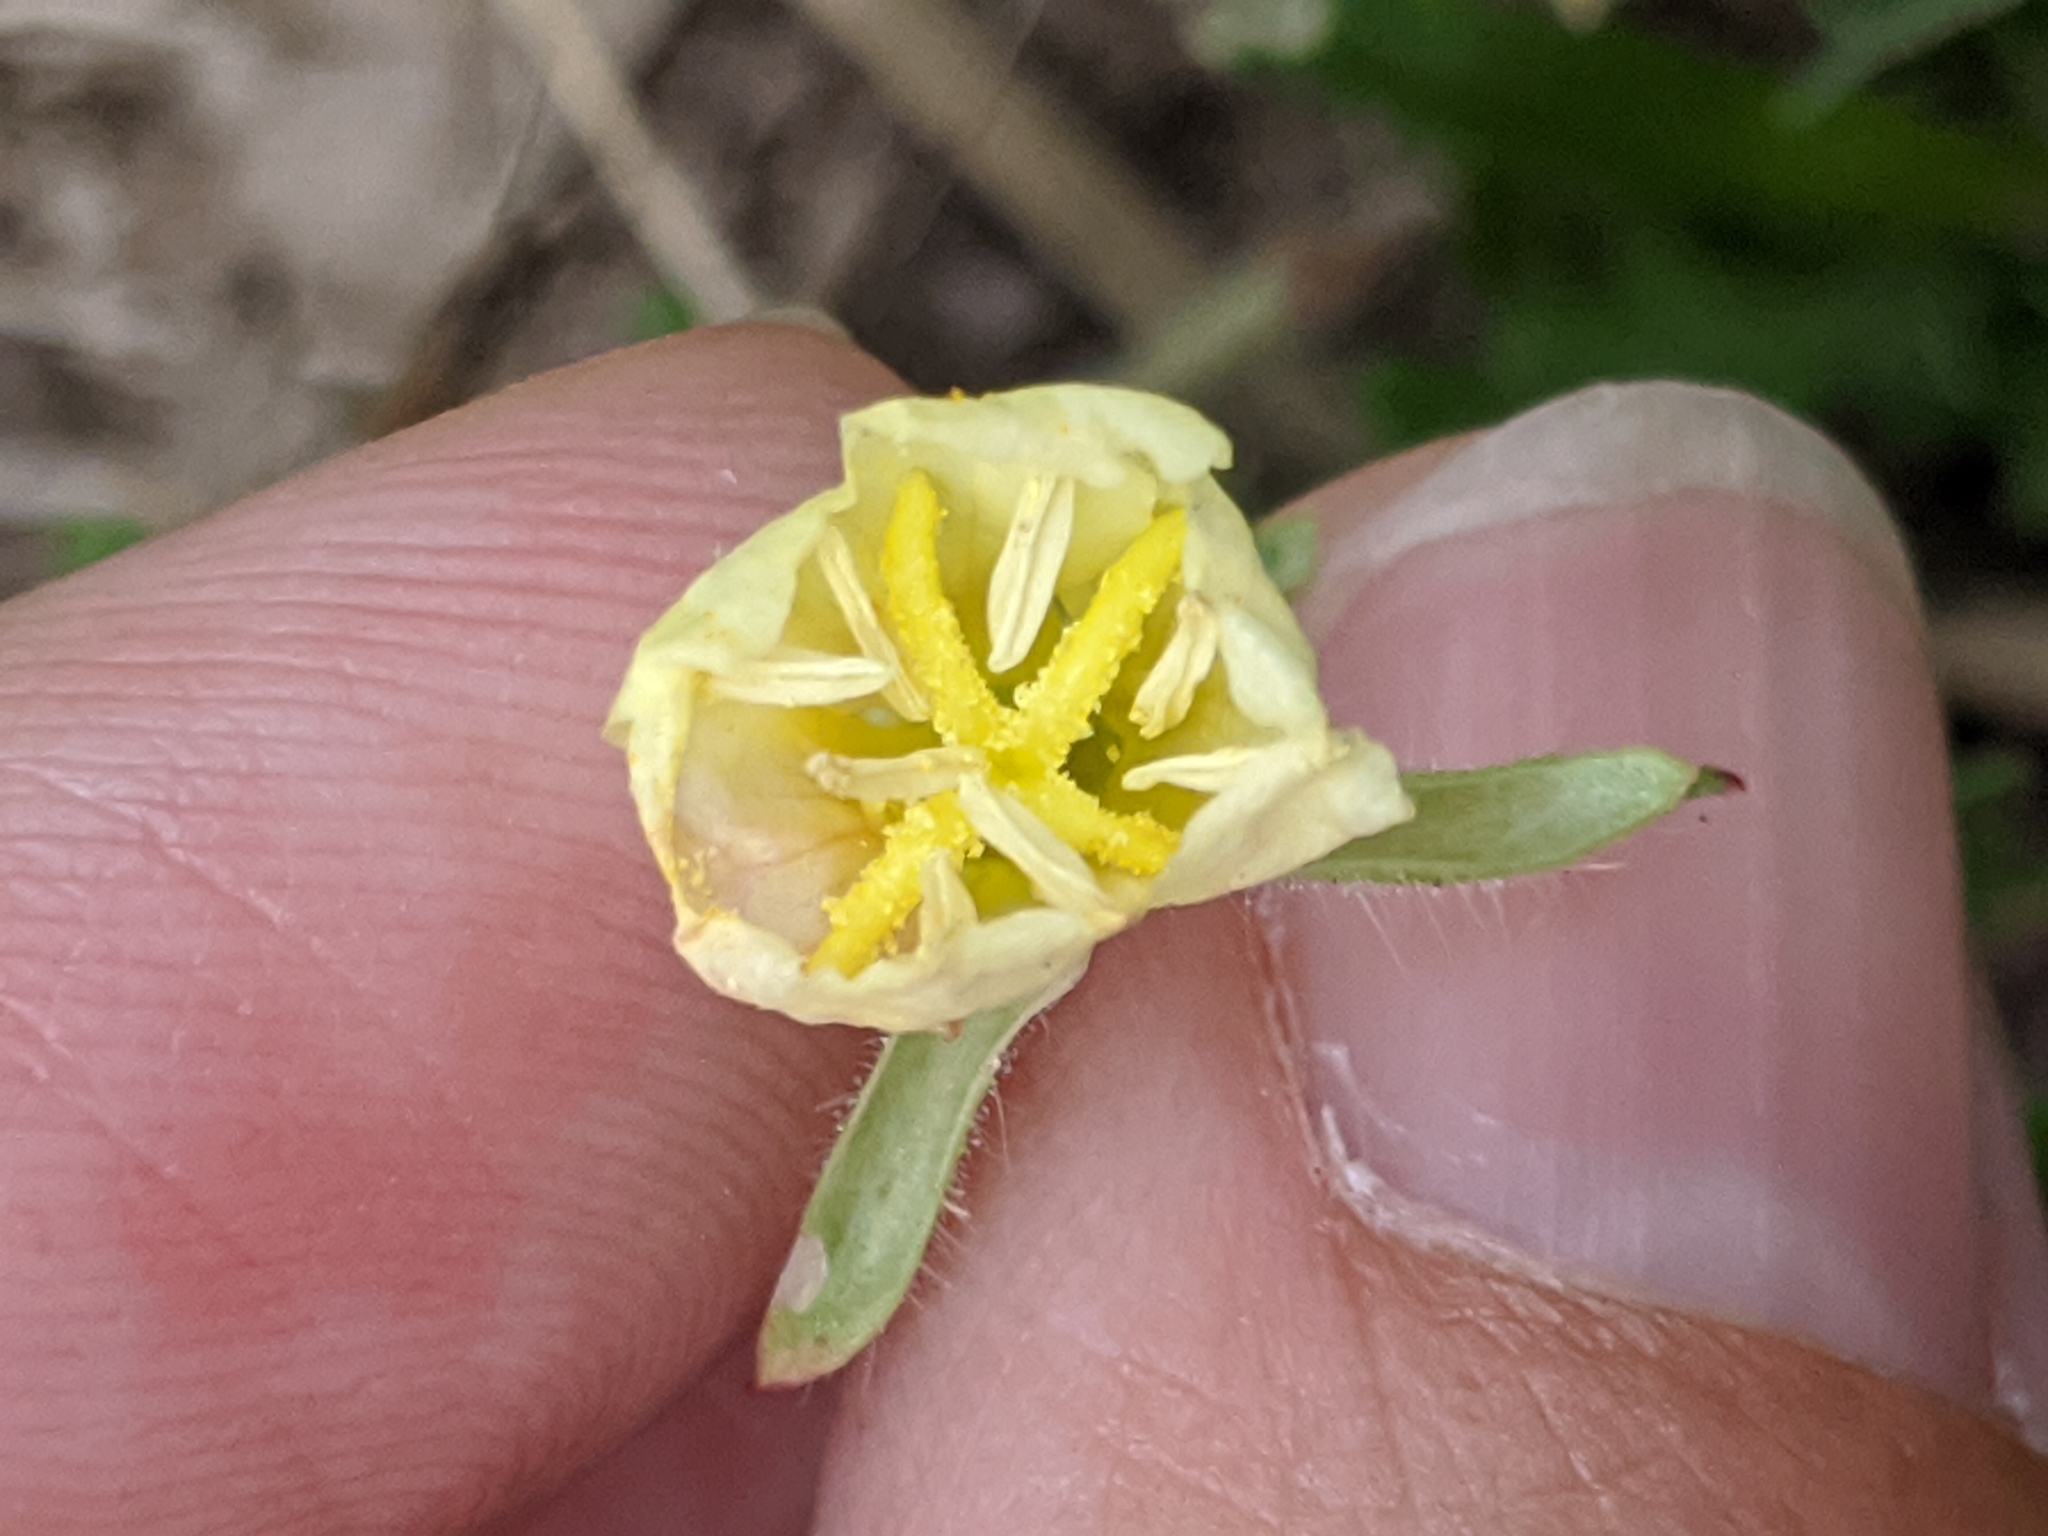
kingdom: Plantae
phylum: Tracheophyta
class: Magnoliopsida
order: Myrtales
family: Onagraceae
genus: Oenothera
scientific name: Oenothera laciniata
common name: Cut-leaved evening-primrose
